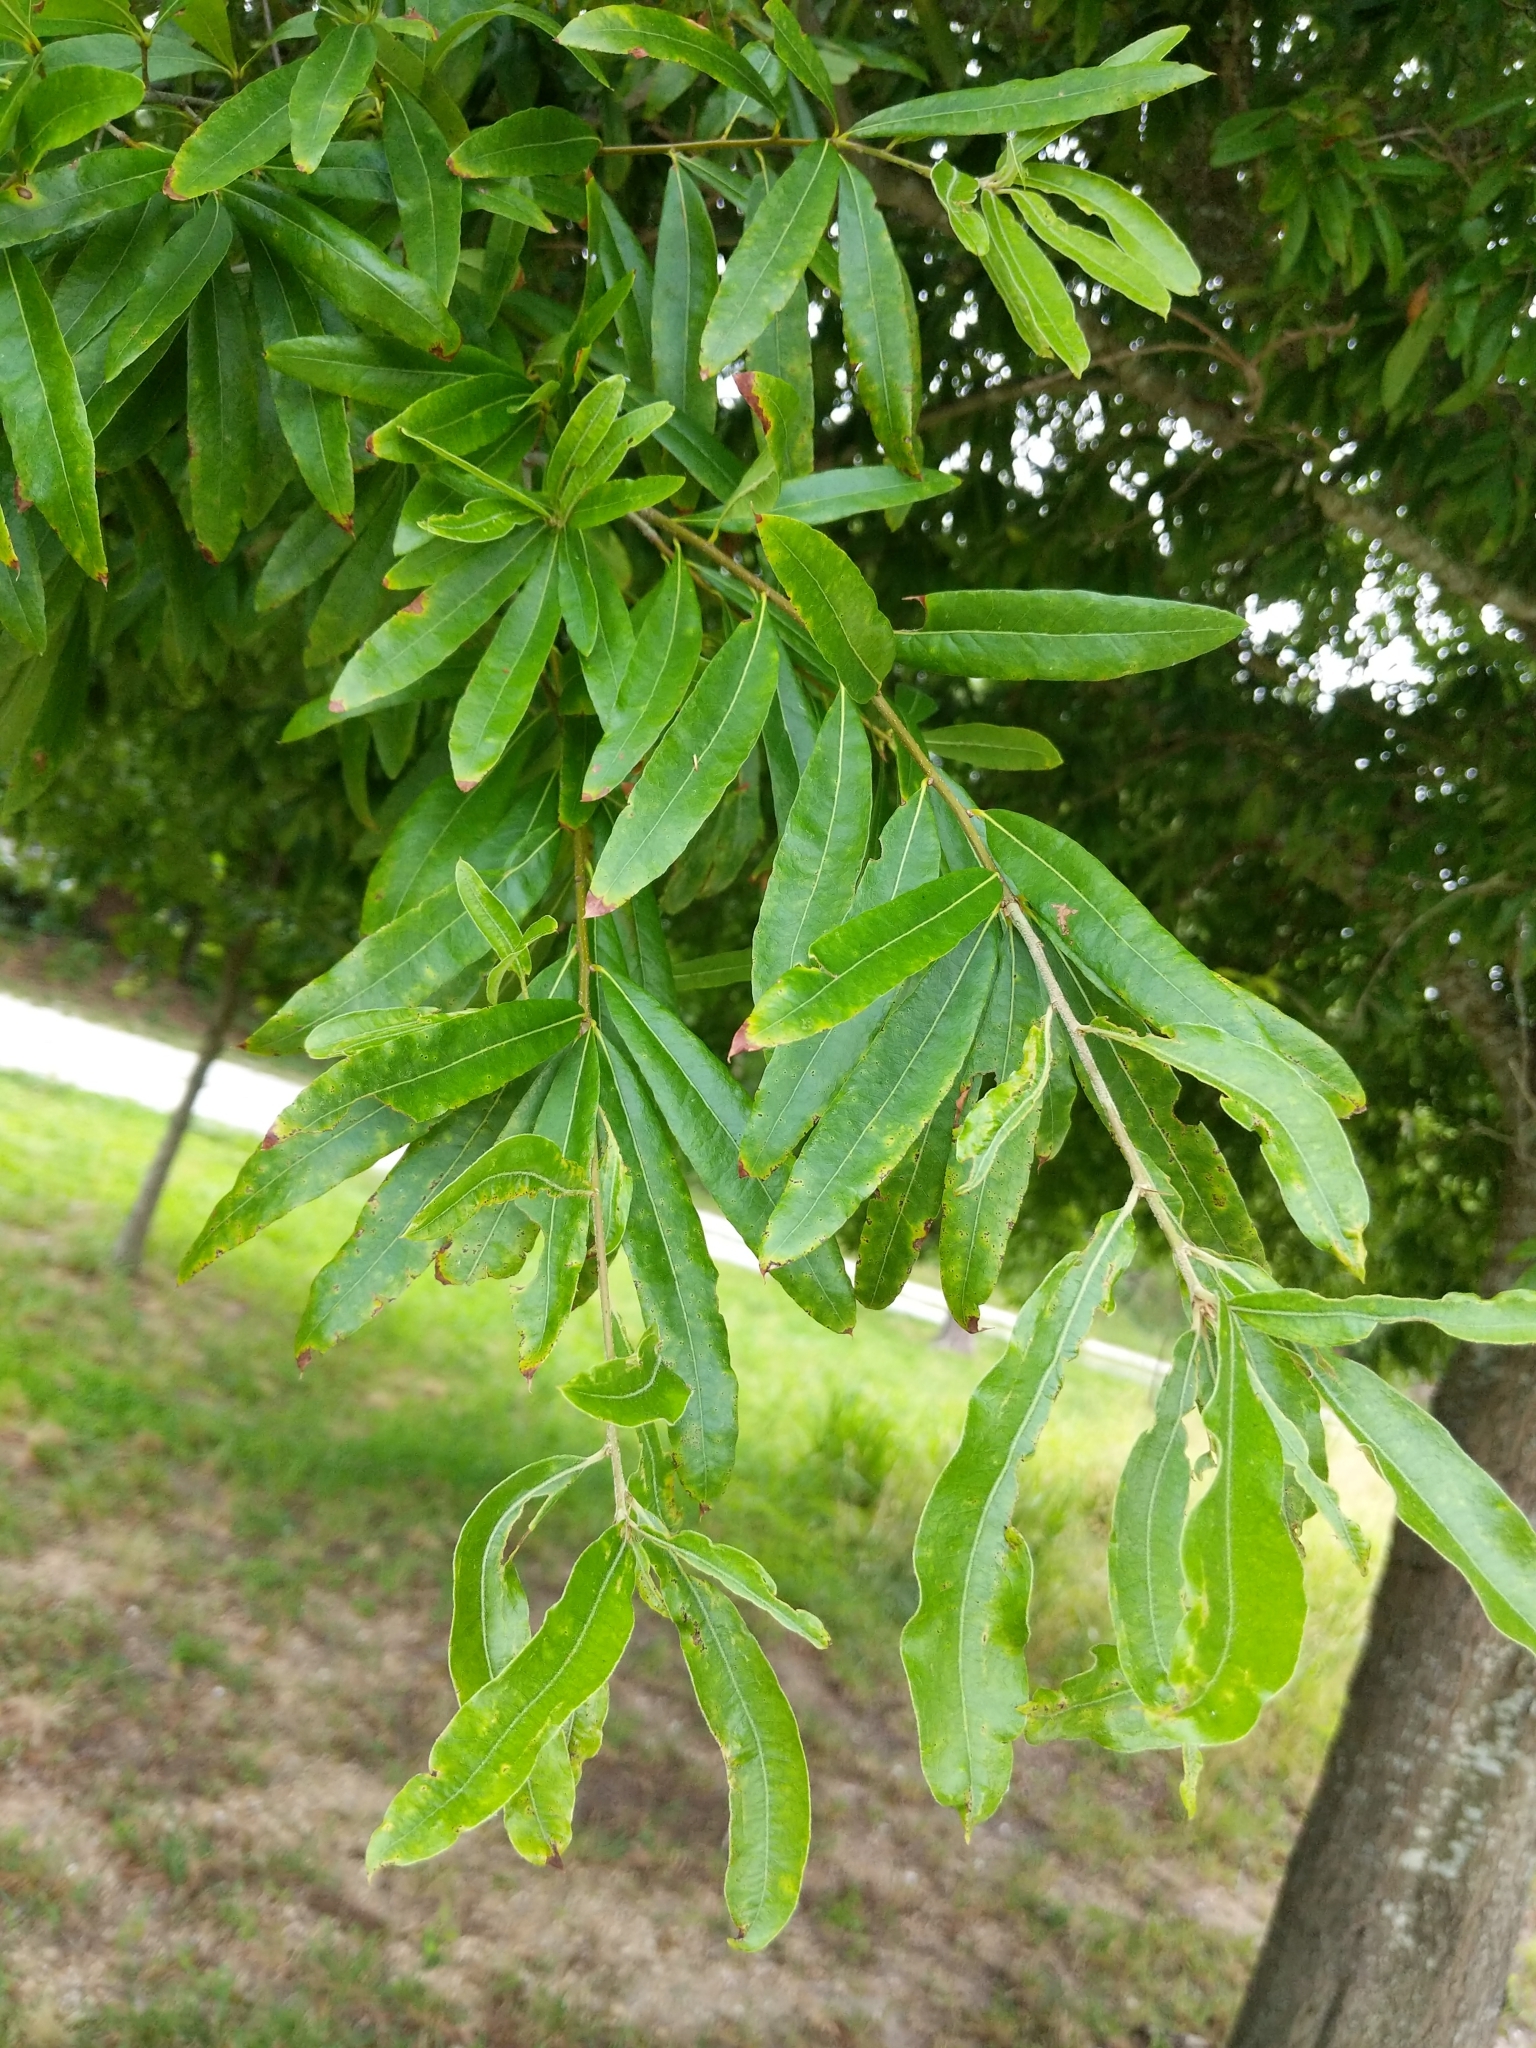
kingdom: Plantae
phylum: Tracheophyta
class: Magnoliopsida
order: Fagales
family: Fagaceae
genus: Quercus
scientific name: Quercus phellos
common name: Willow oak
